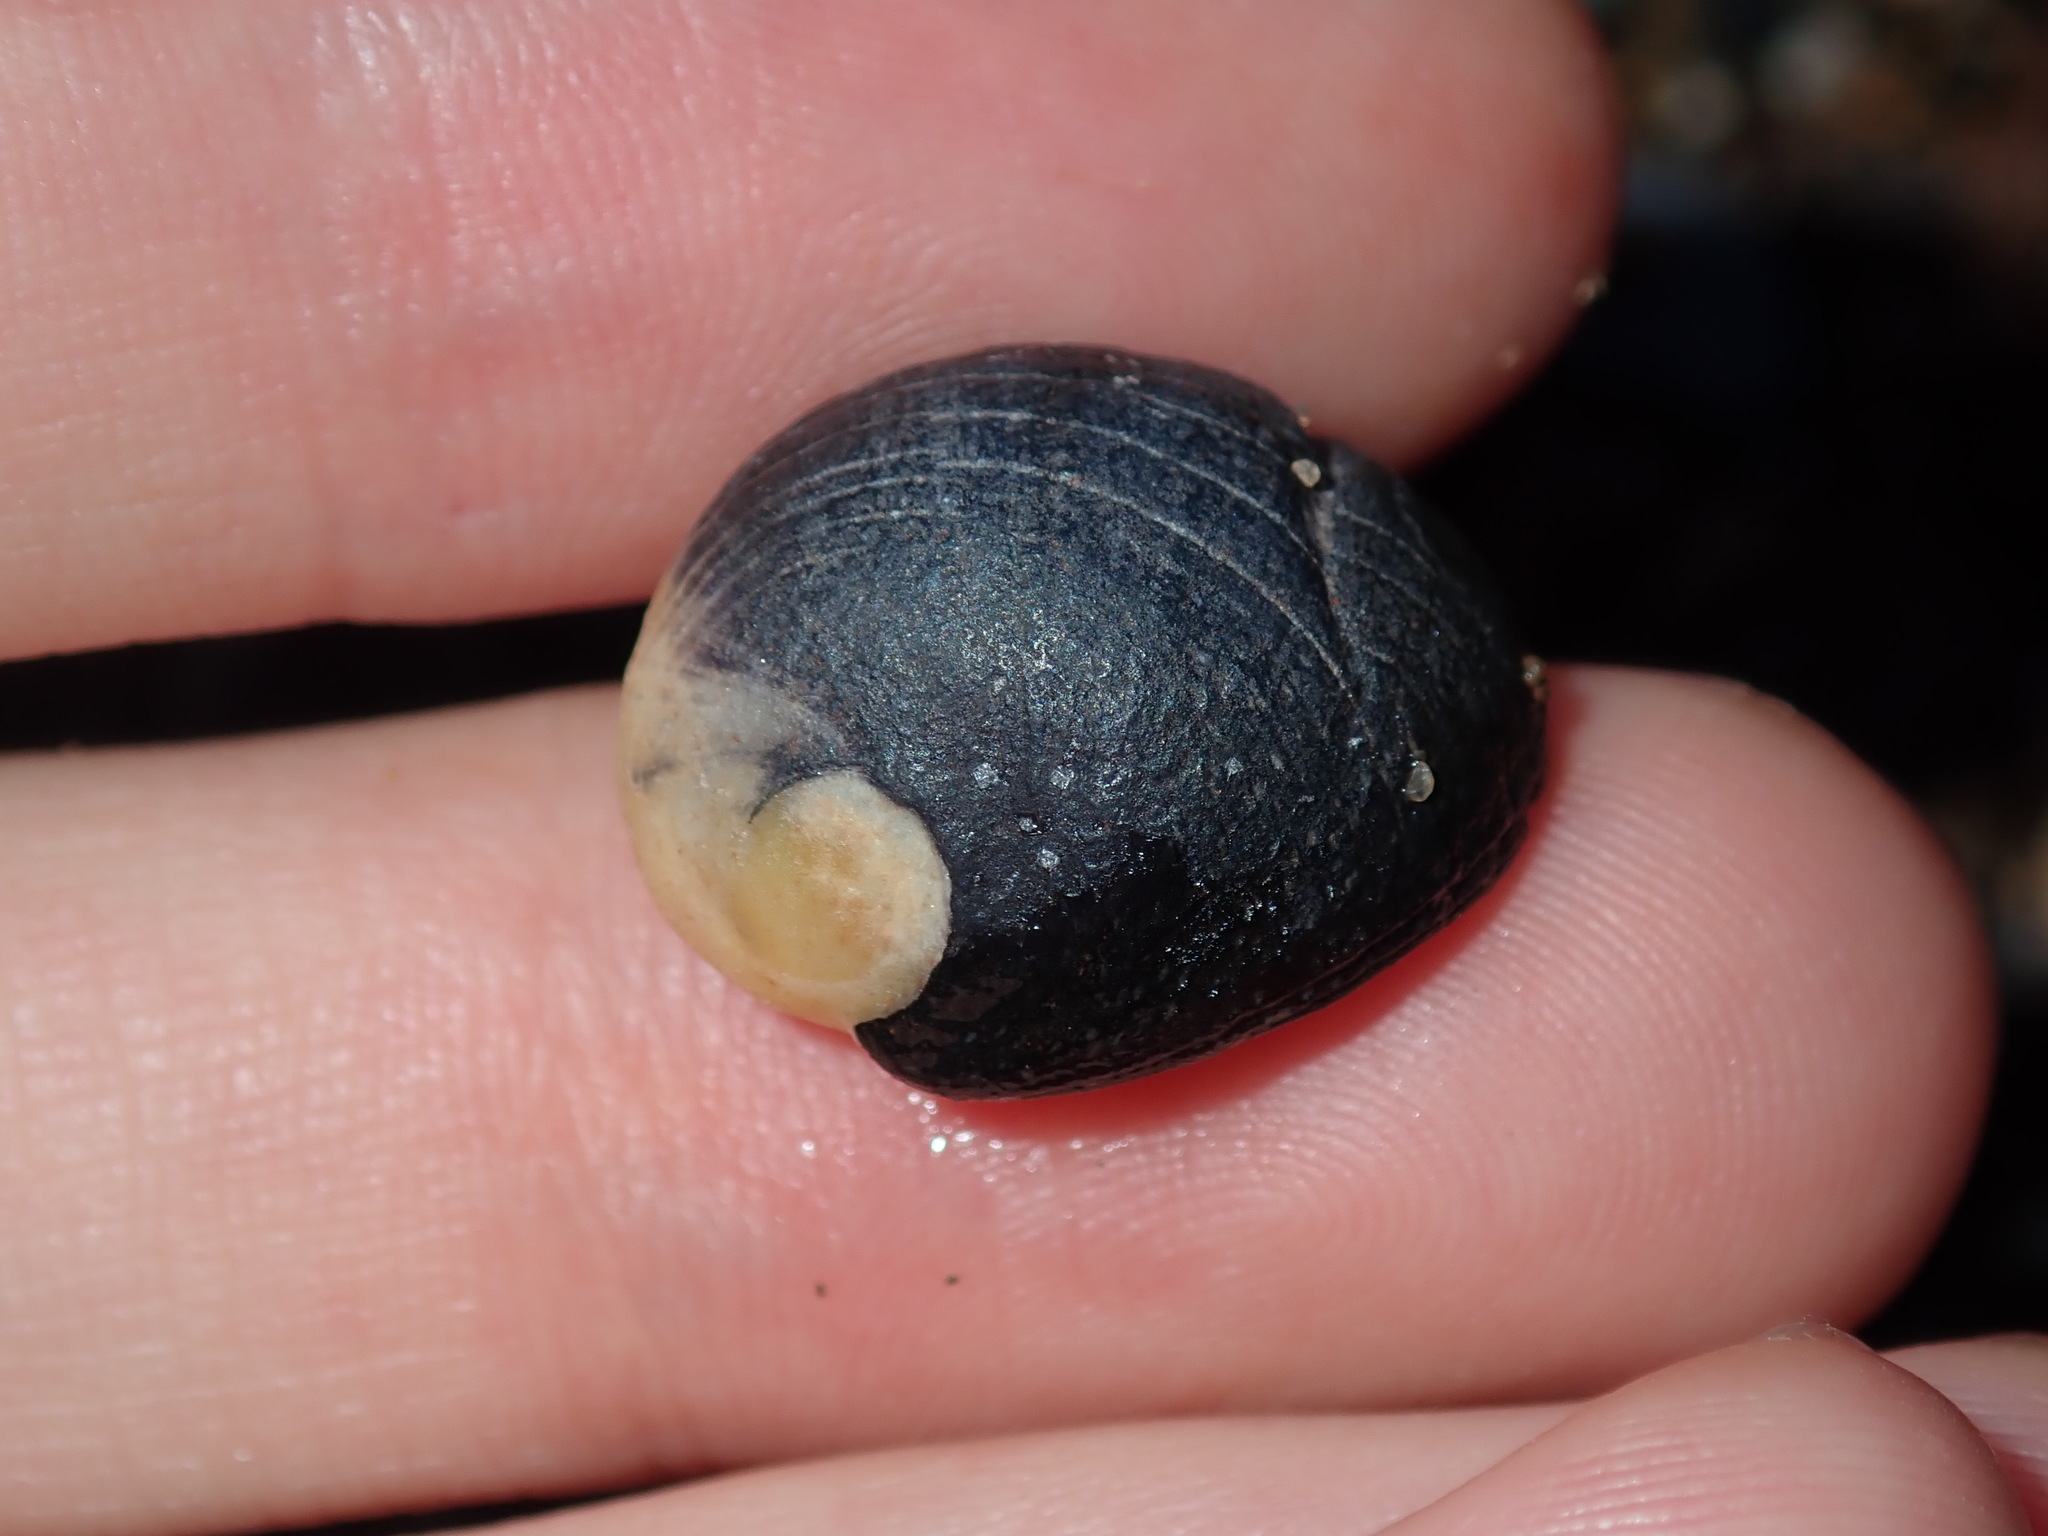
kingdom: Animalia
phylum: Mollusca
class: Gastropoda
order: Cycloneritida
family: Neritidae
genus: Nerita
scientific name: Nerita melanotragus
